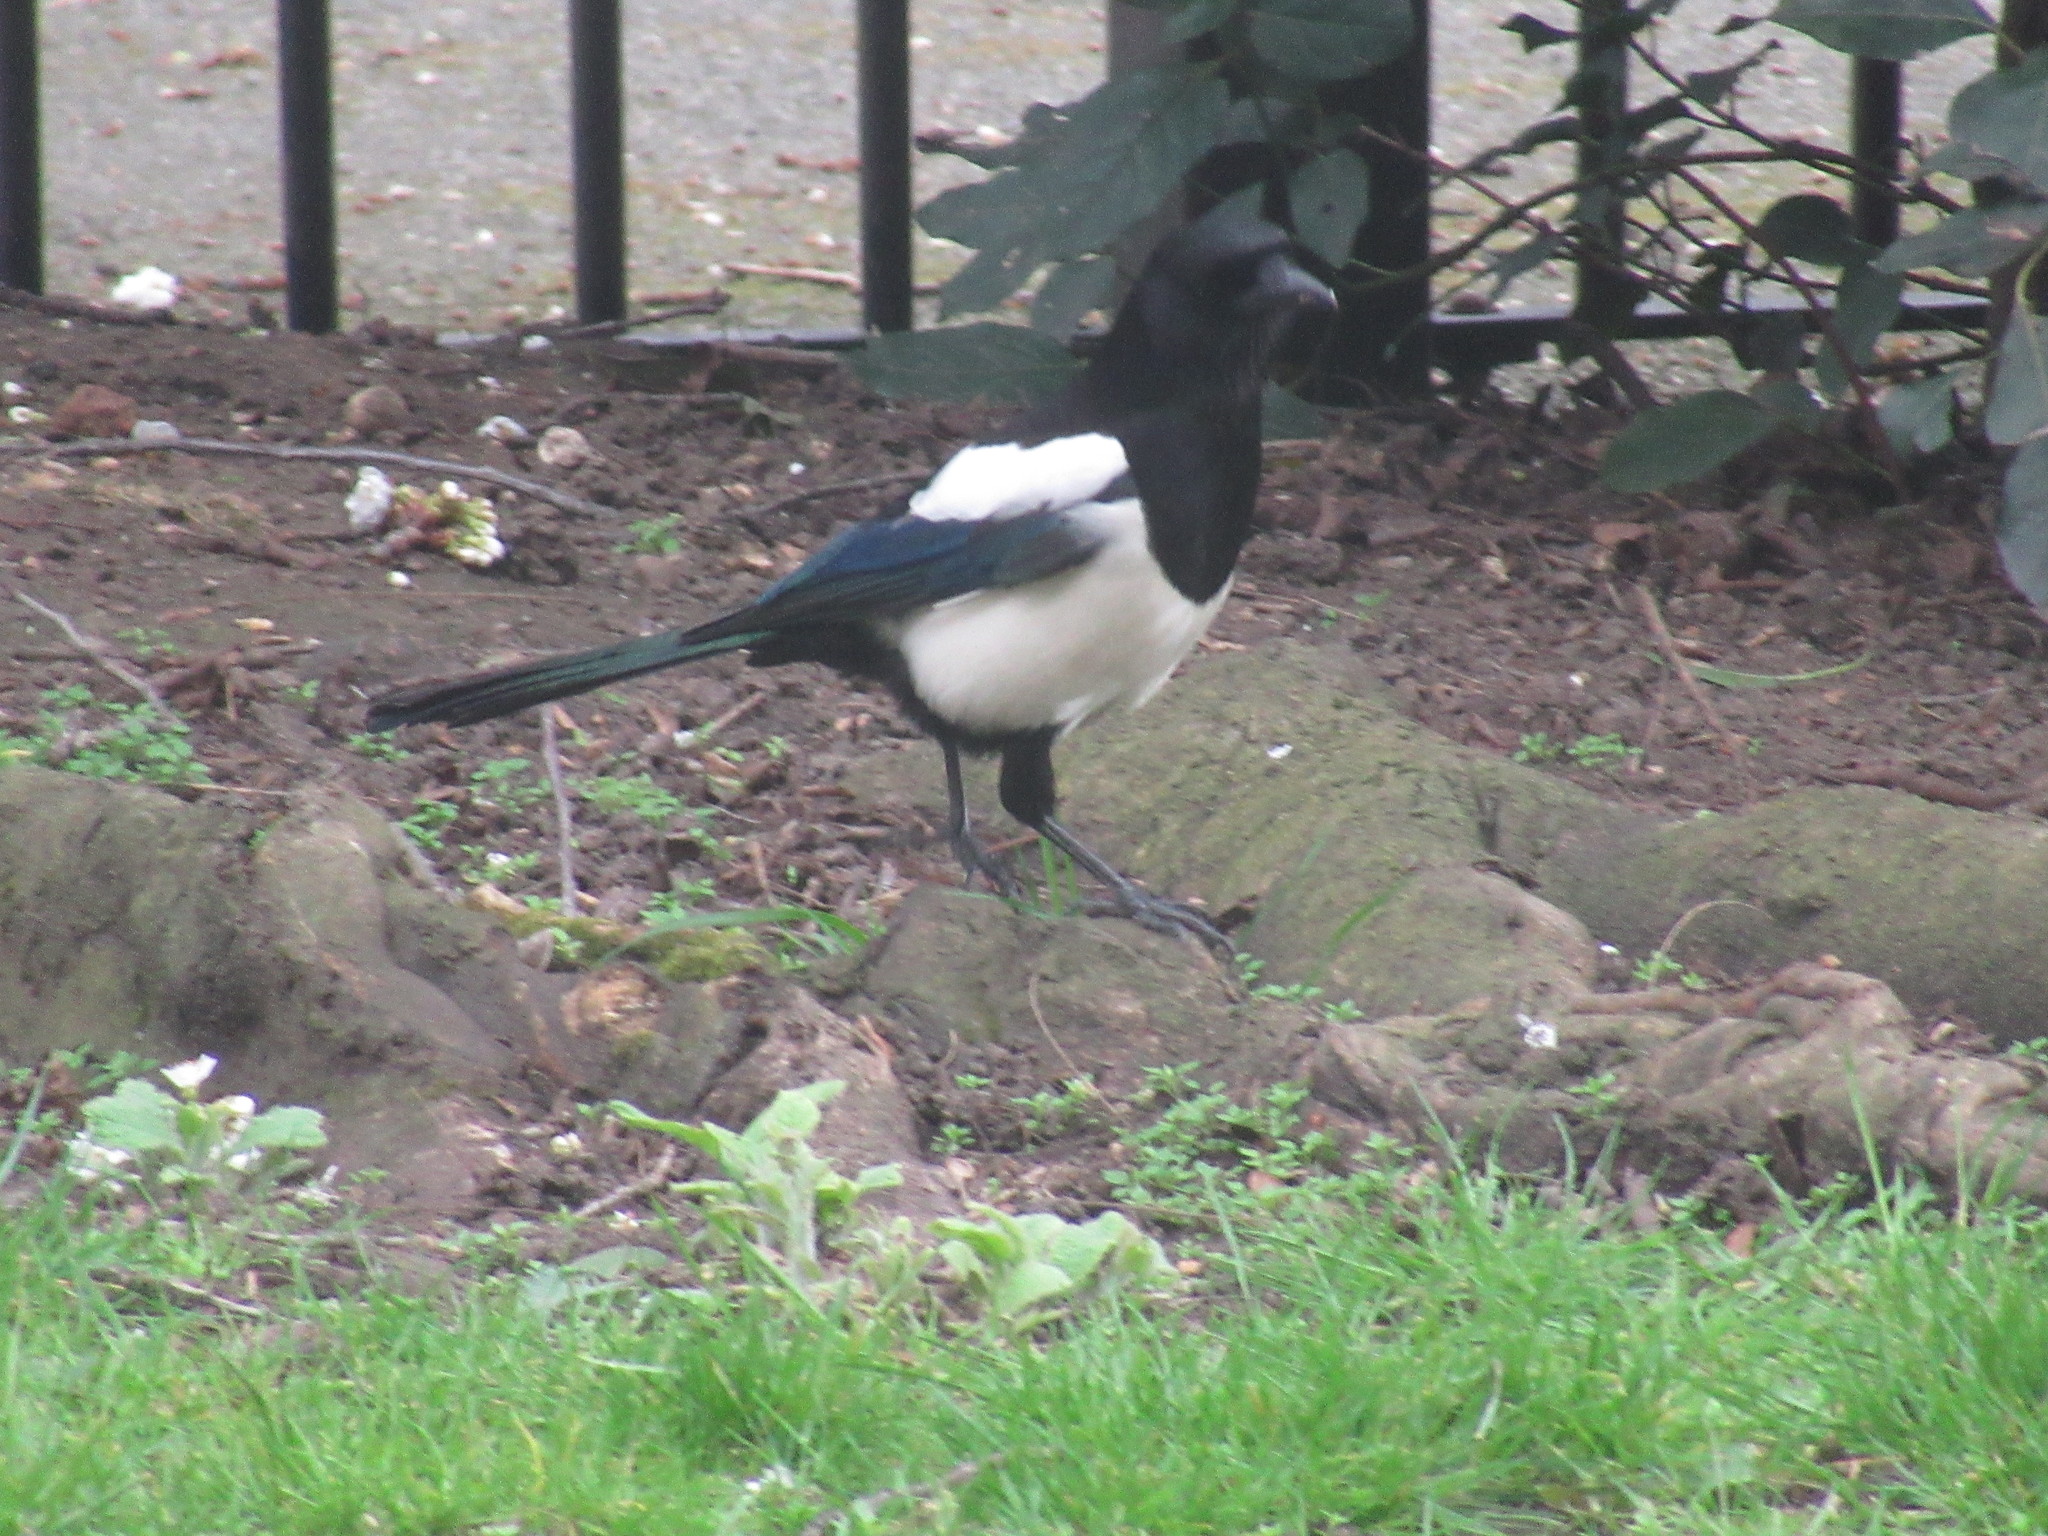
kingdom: Animalia
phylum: Chordata
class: Aves
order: Passeriformes
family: Corvidae
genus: Pica
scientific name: Pica pica
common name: Eurasian magpie
